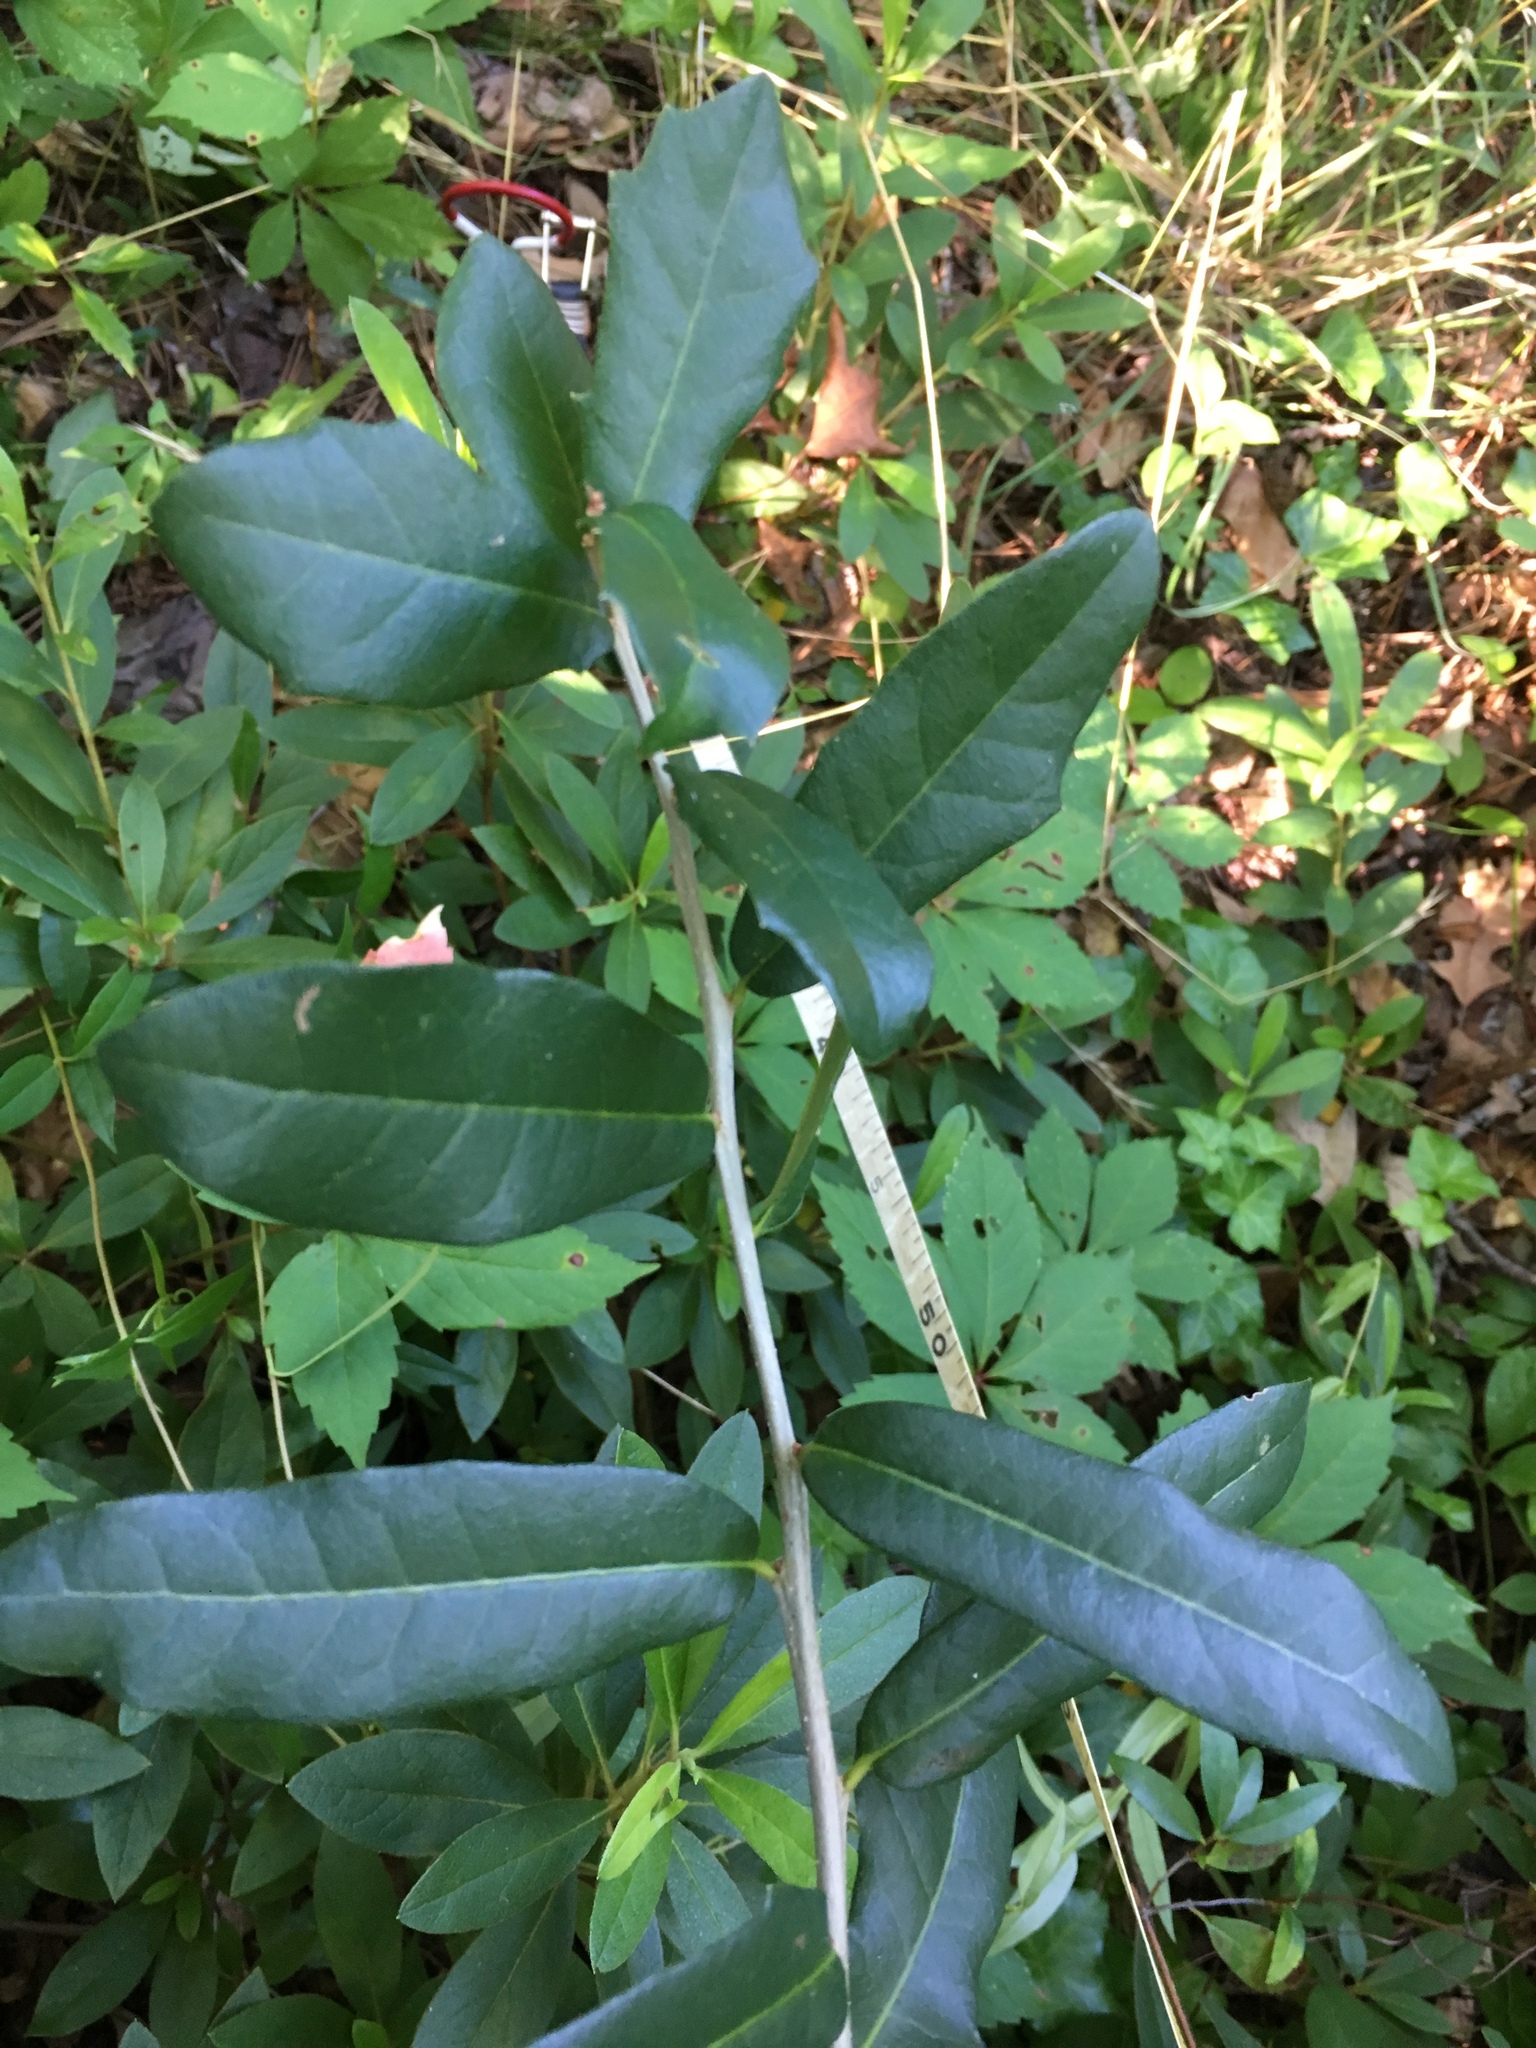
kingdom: Plantae
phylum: Tracheophyta
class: Magnoliopsida
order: Fagales
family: Fagaceae
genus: Quercus
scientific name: Quercus virginiana
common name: Southern live oak
